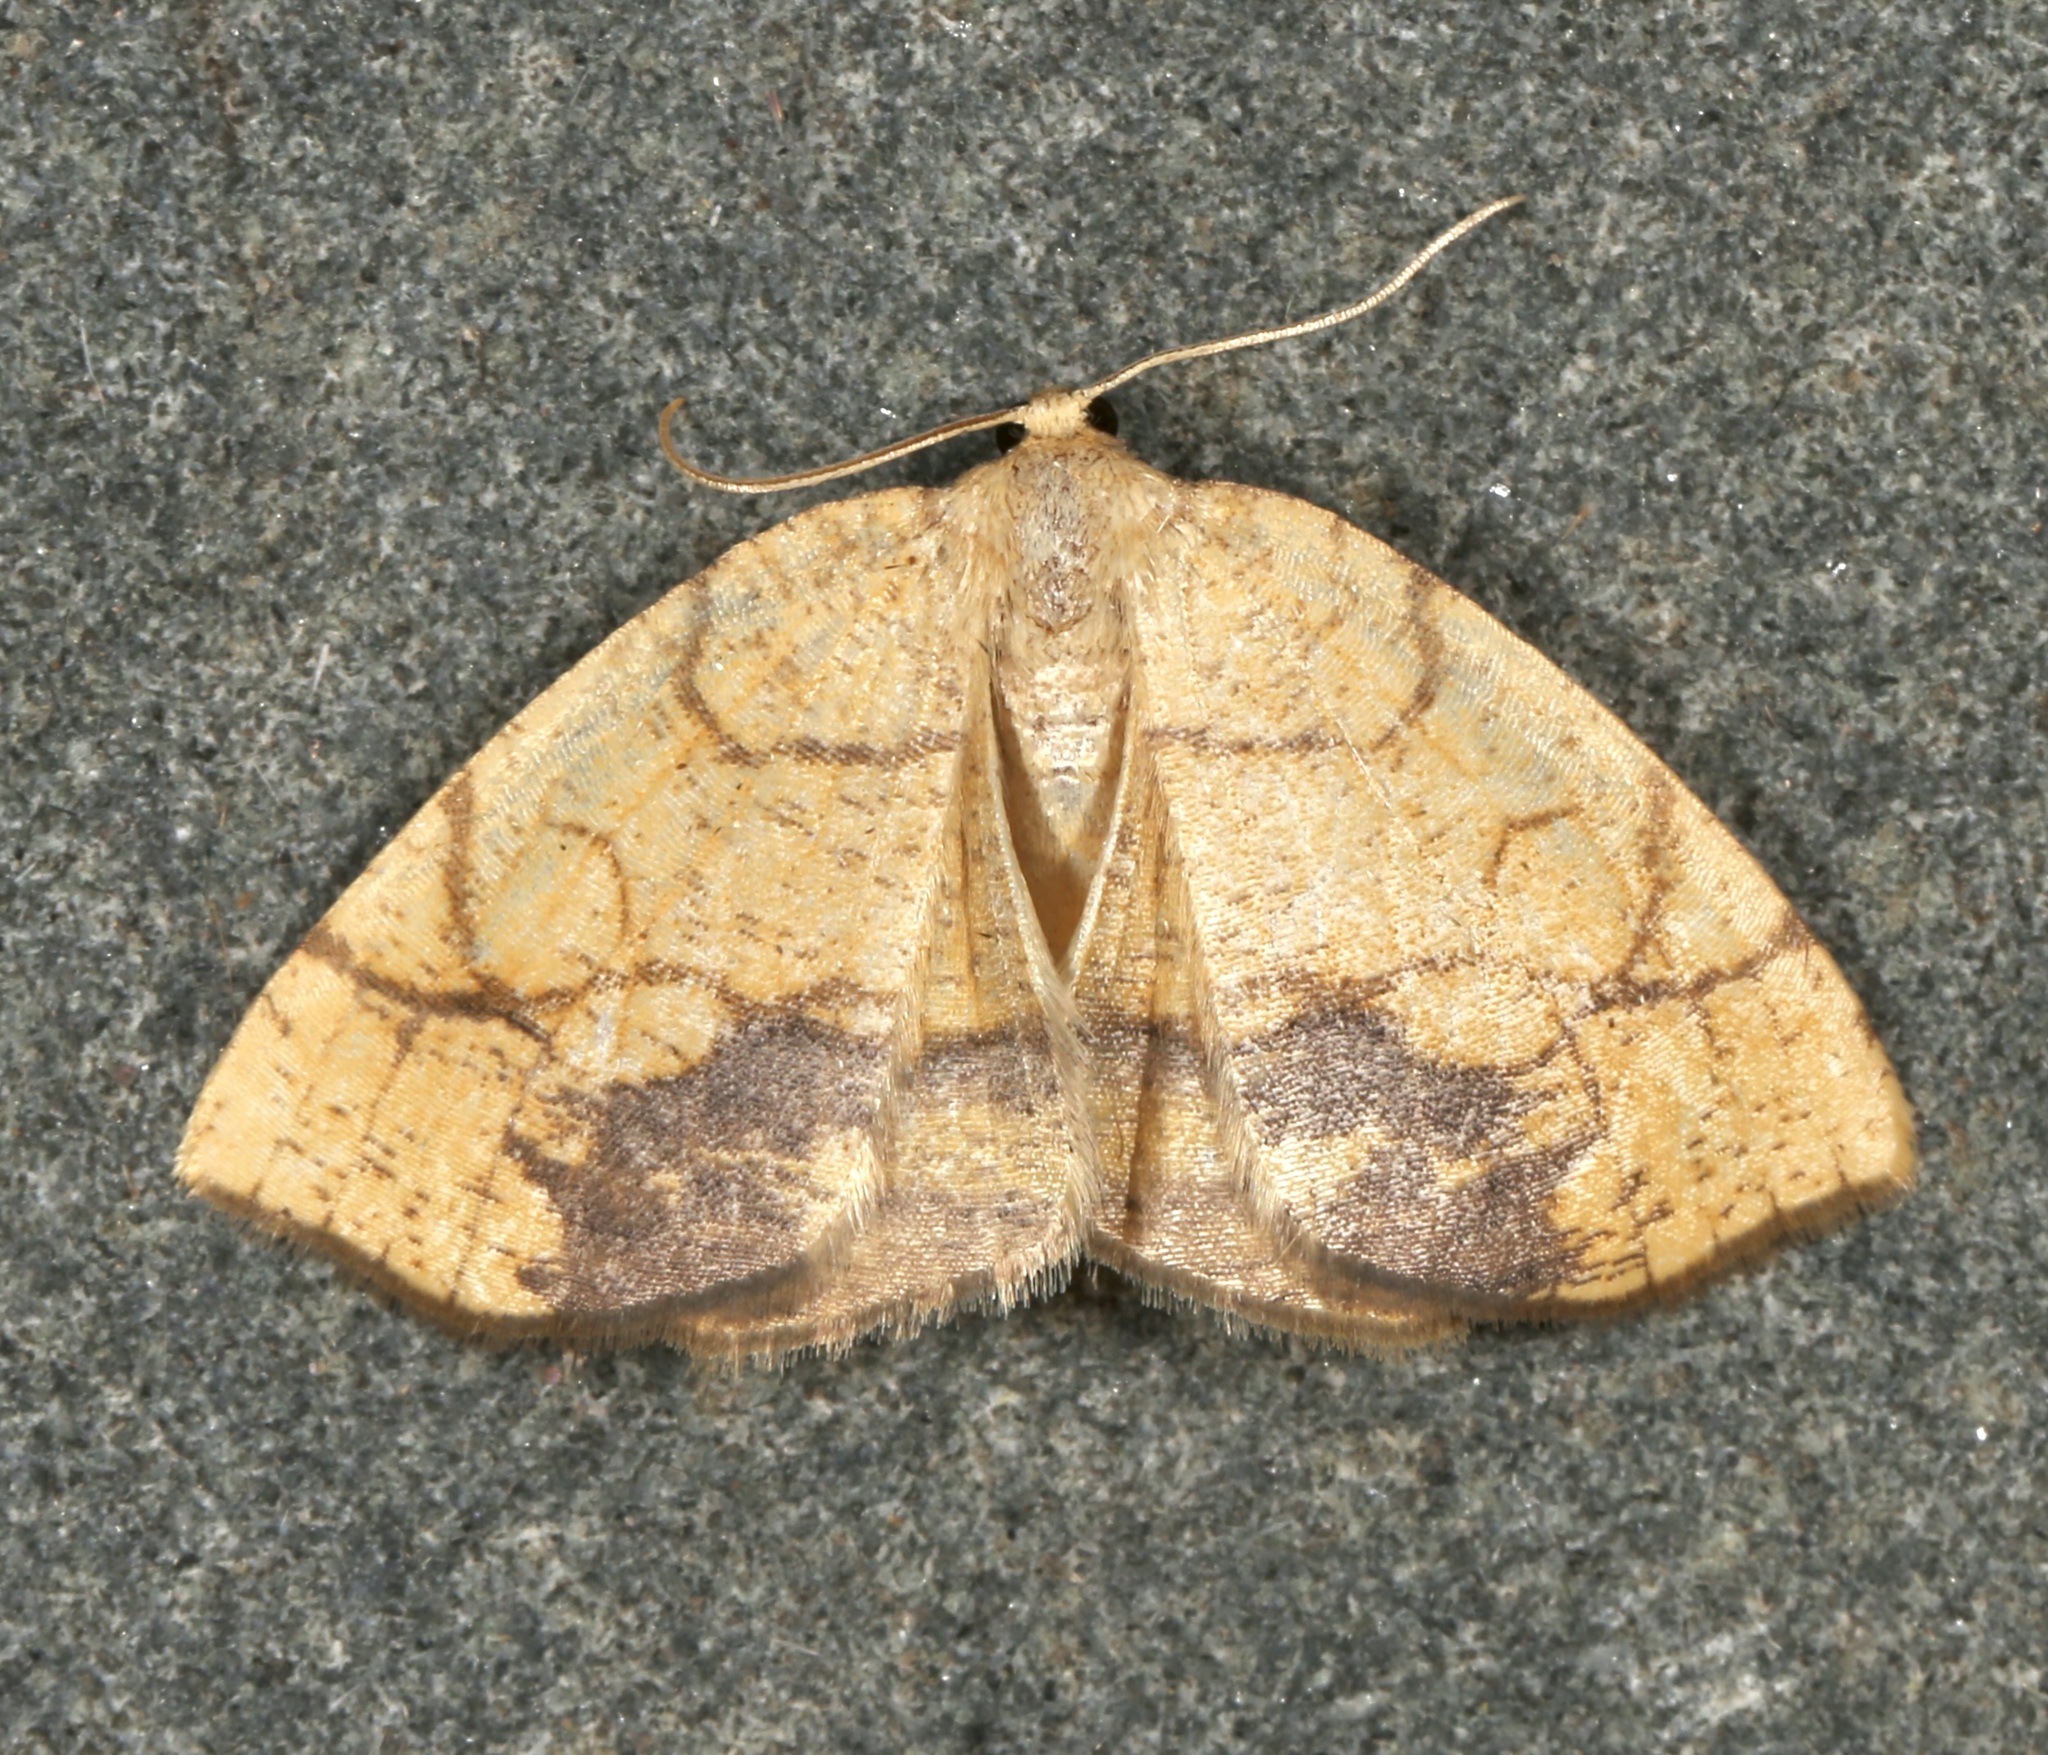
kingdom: Animalia
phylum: Arthropoda
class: Insecta
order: Lepidoptera
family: Geometridae
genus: Nematocampa
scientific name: Nematocampa resistaria
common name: Horned spanworm moth
